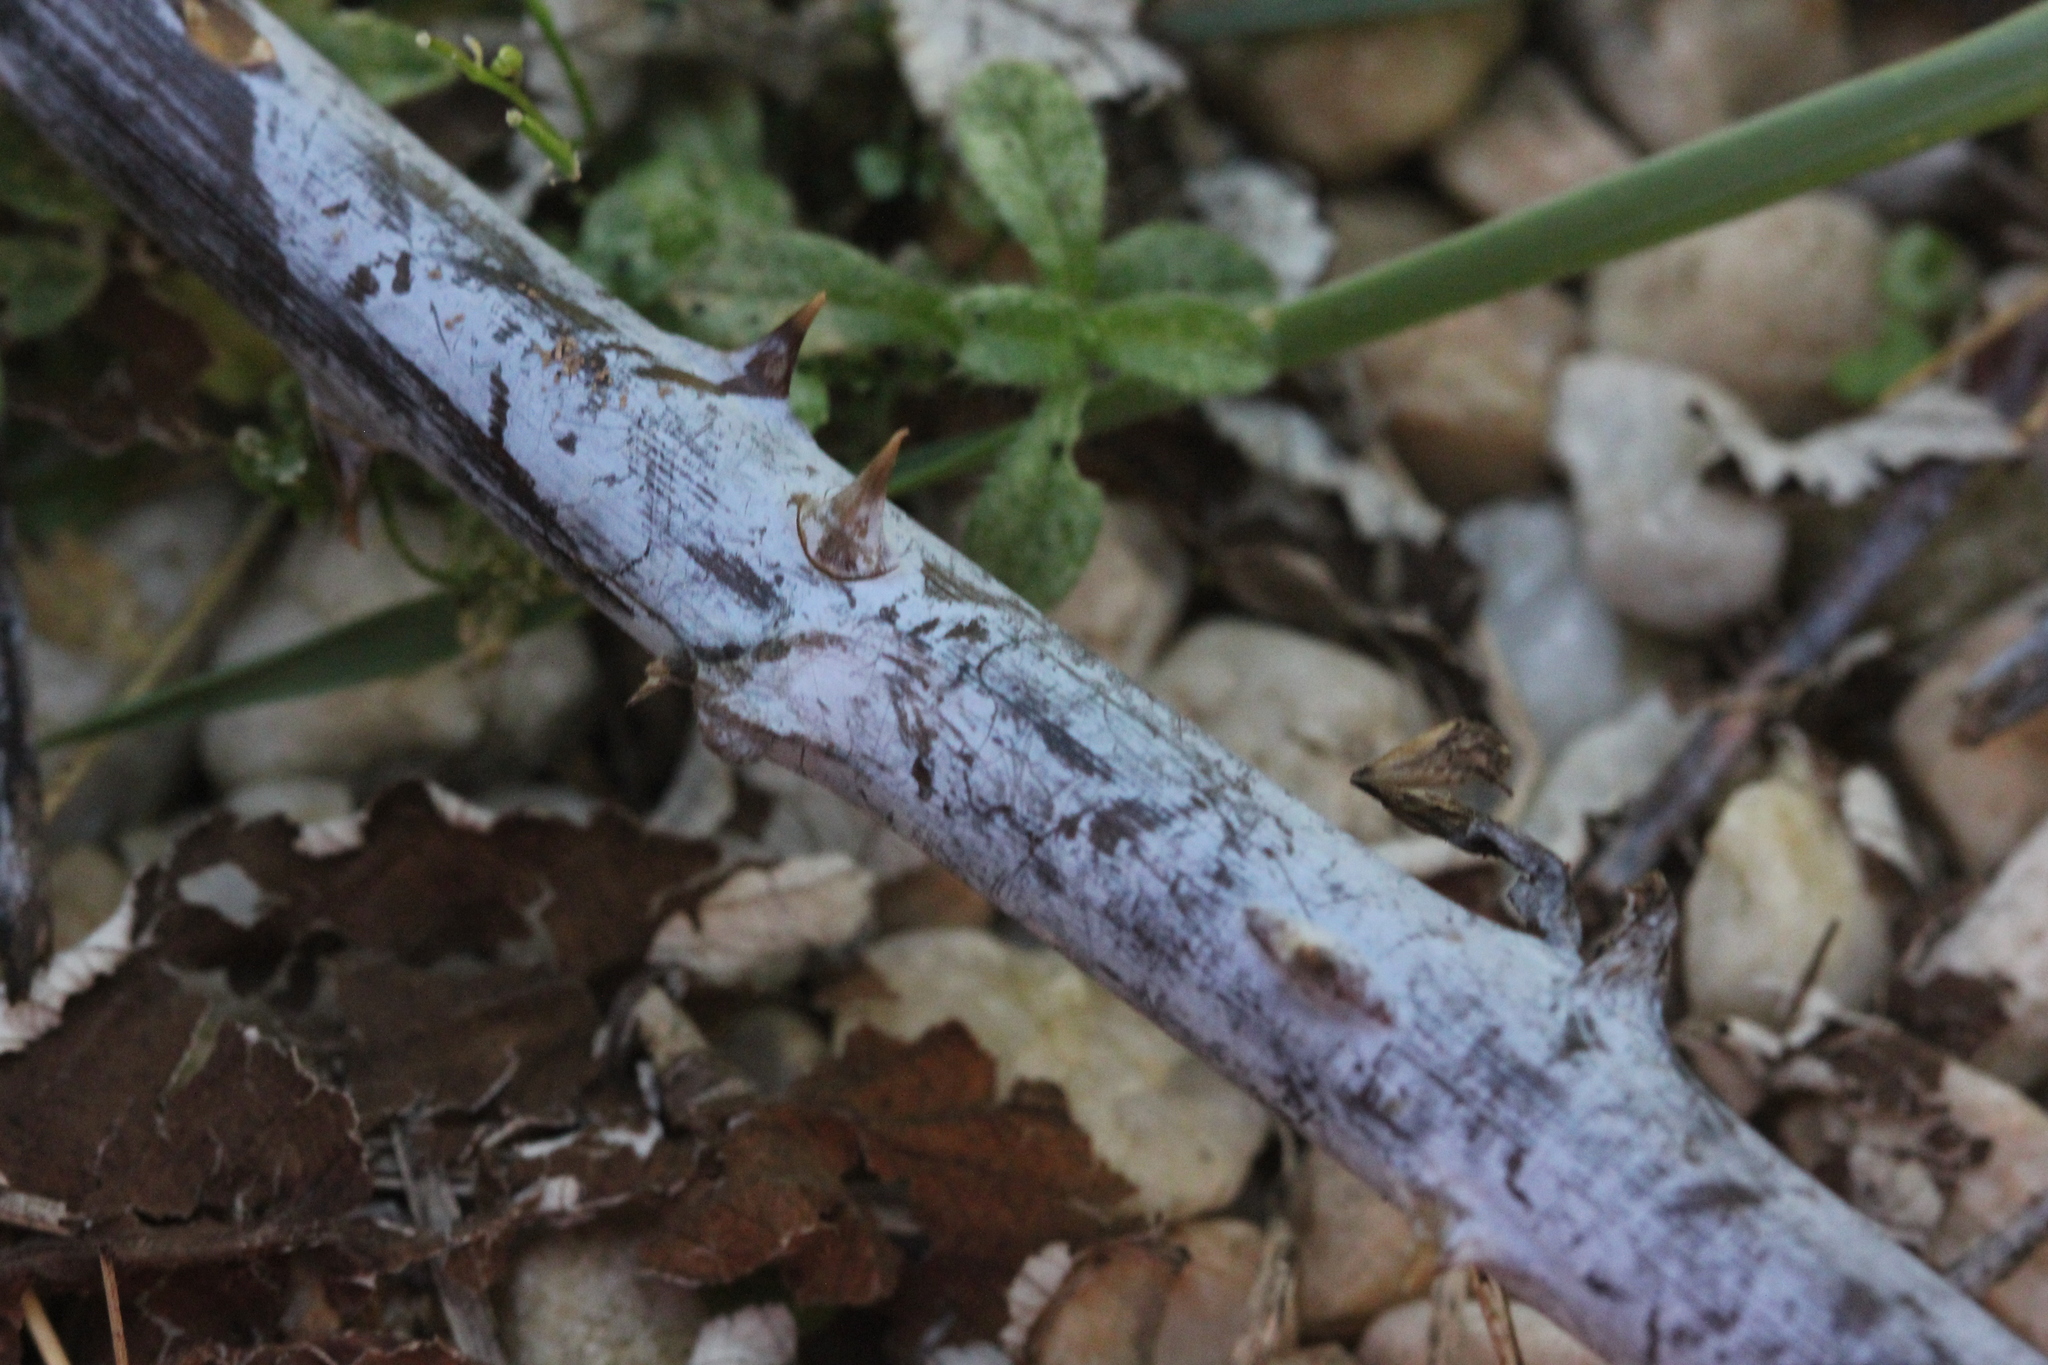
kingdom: Plantae
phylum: Tracheophyta
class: Magnoliopsida
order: Rosales
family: Rosaceae
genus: Rubus
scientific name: Rubus occidentalis
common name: Black raspberry
